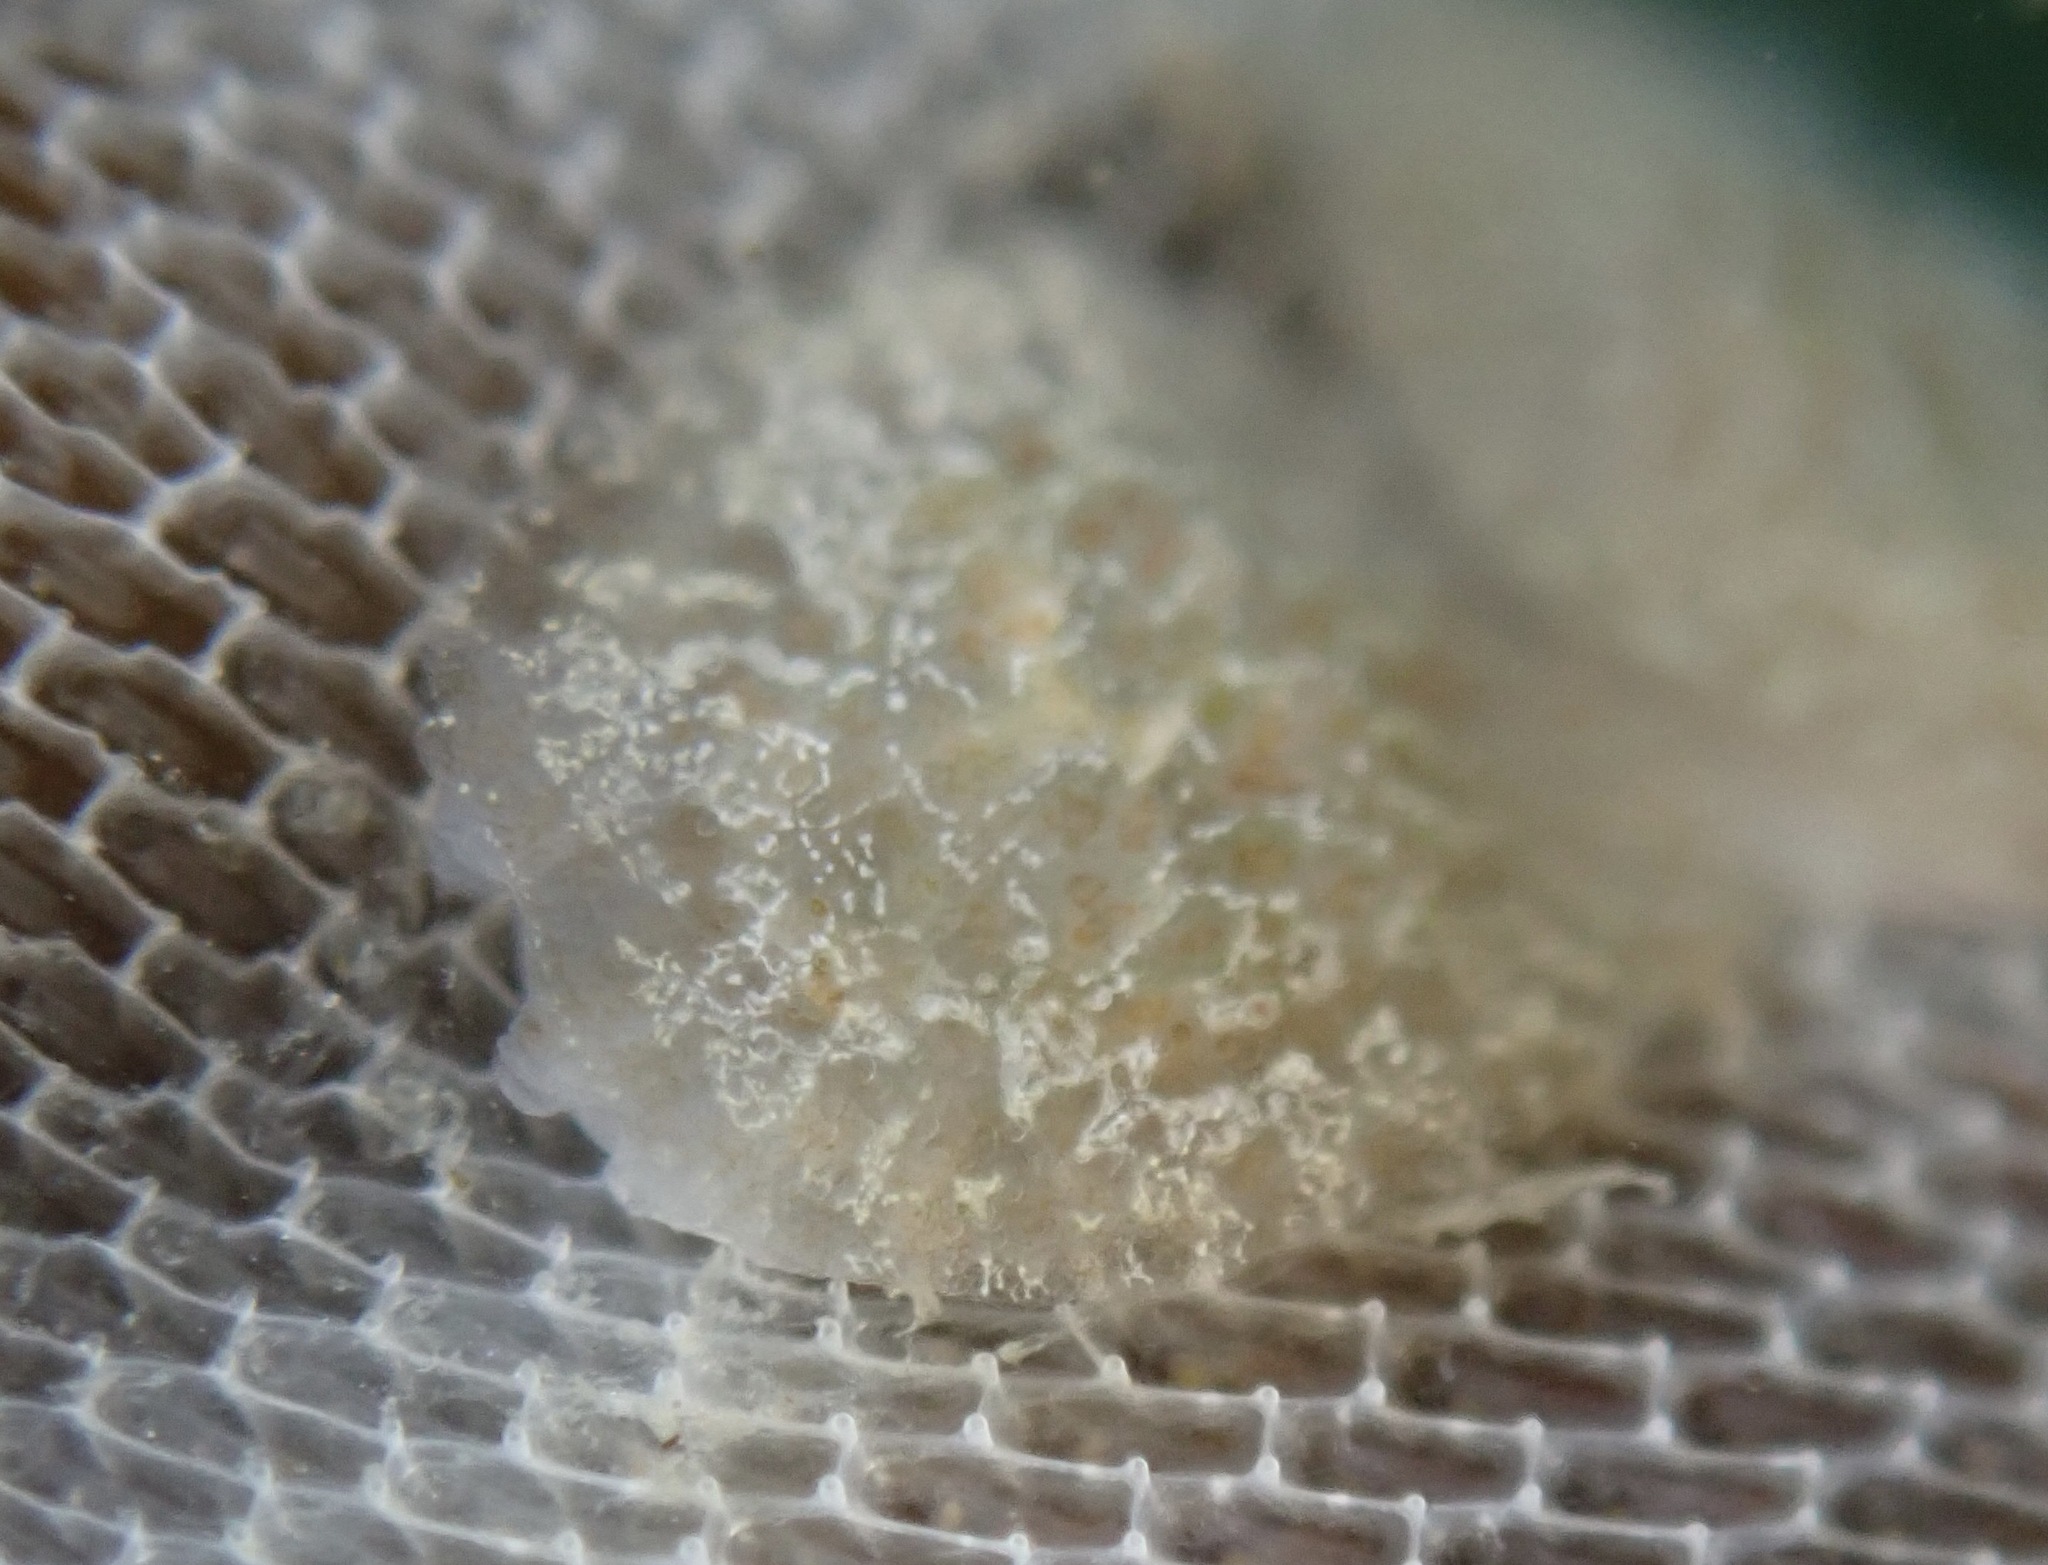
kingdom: Animalia
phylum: Mollusca
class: Gastropoda
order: Nudibranchia
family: Corambidae
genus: Corambe
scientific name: Corambe steinbergae
